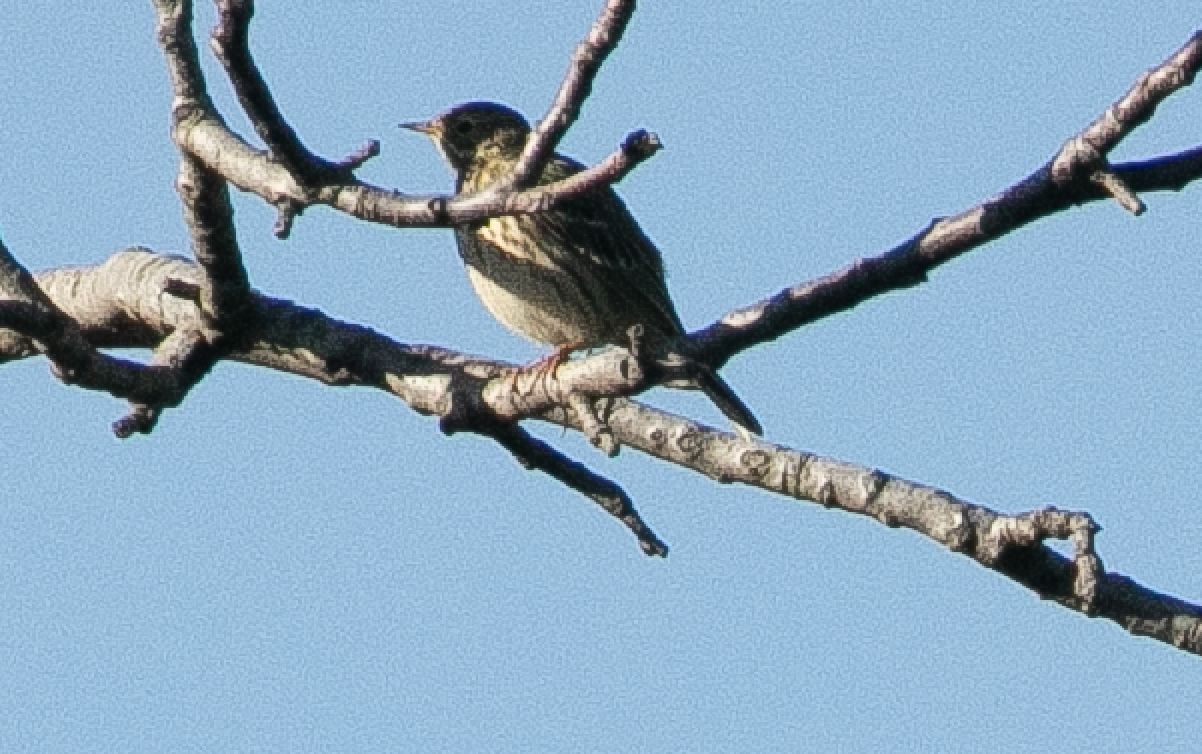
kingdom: Animalia
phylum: Chordata
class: Aves
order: Passeriformes
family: Motacillidae
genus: Anthus
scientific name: Anthus pratensis
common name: Meadow pipit
